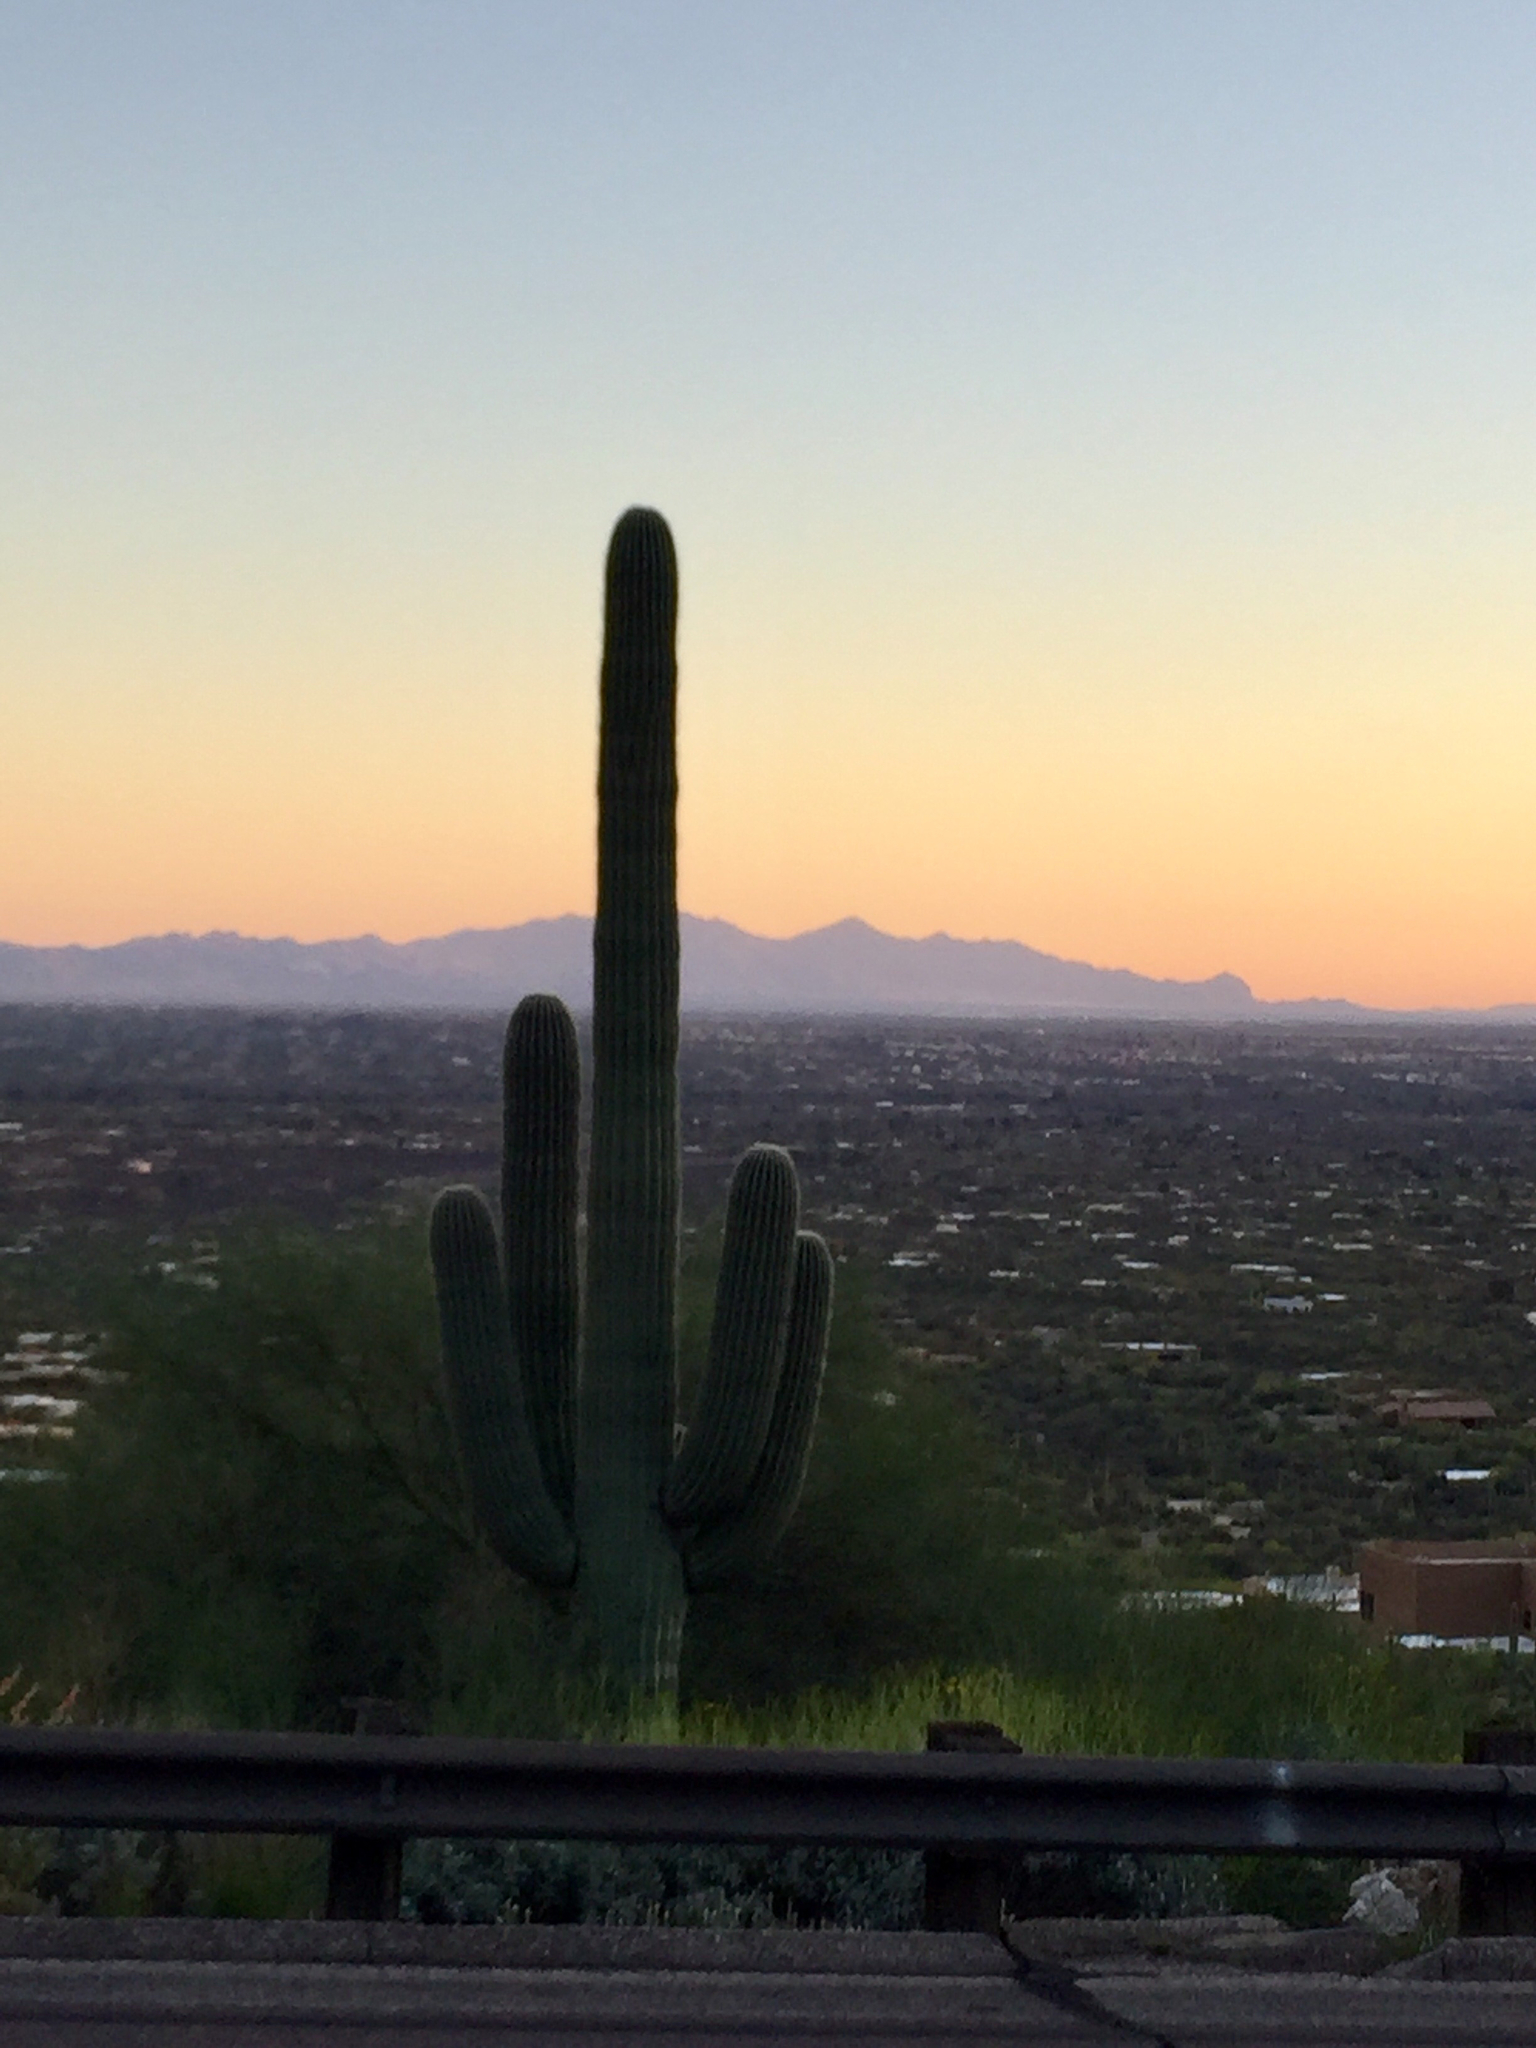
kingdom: Plantae
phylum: Tracheophyta
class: Magnoliopsida
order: Caryophyllales
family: Cactaceae
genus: Carnegiea
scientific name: Carnegiea gigantea
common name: Saguaro
